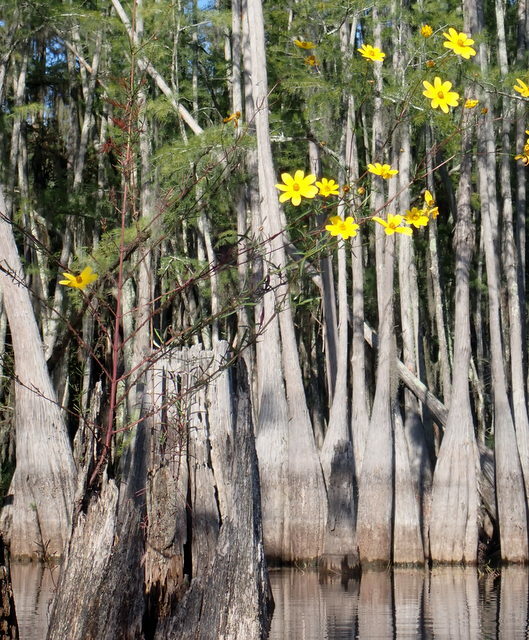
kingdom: Plantae
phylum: Tracheophyta
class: Magnoliopsida
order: Asterales
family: Asteraceae
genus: Bidens
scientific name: Bidens mitis
